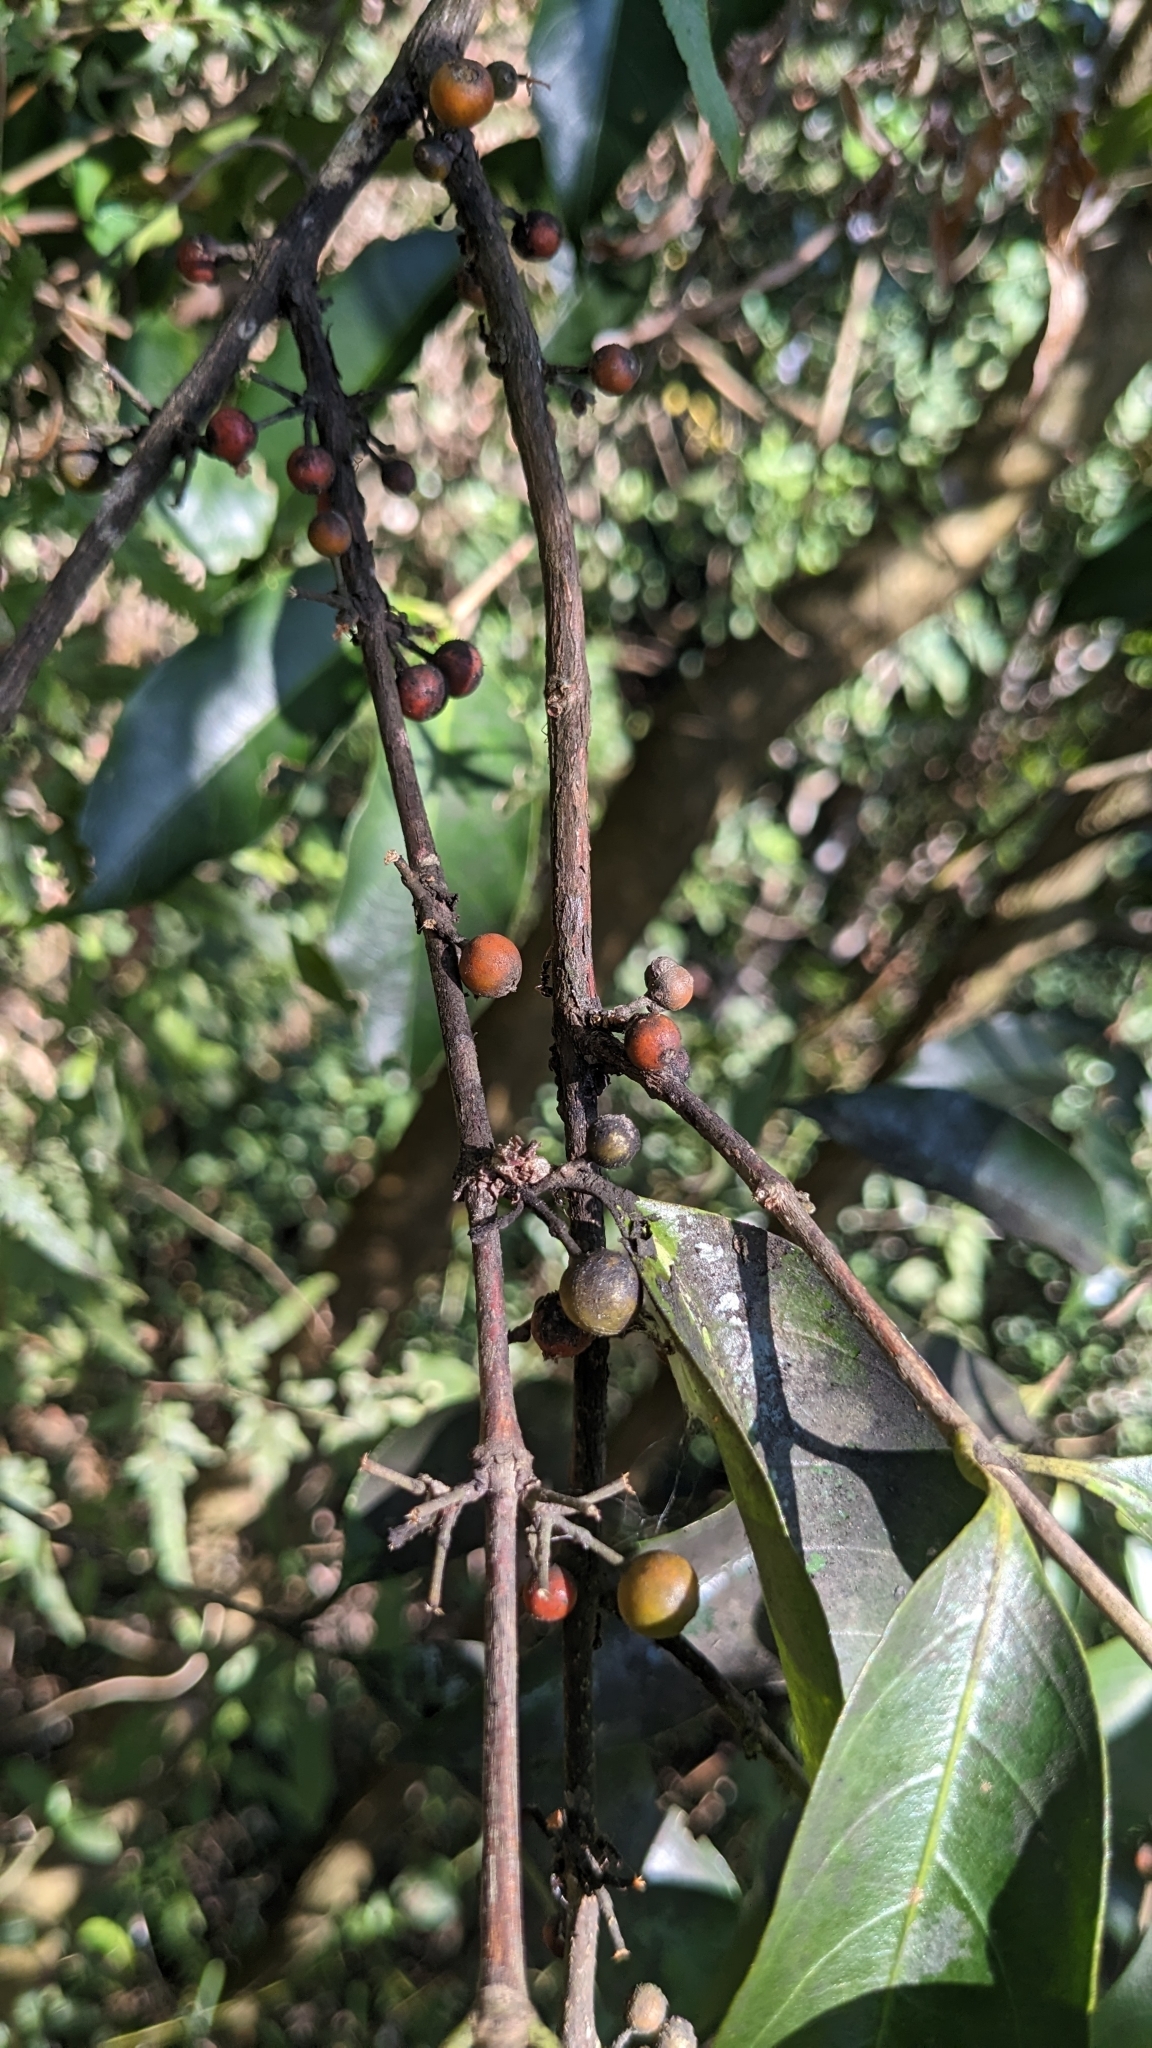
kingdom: Plantae
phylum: Tracheophyta
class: Magnoliopsida
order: Gentianales
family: Rubiaceae
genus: Diplospora
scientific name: Diplospora dubia
